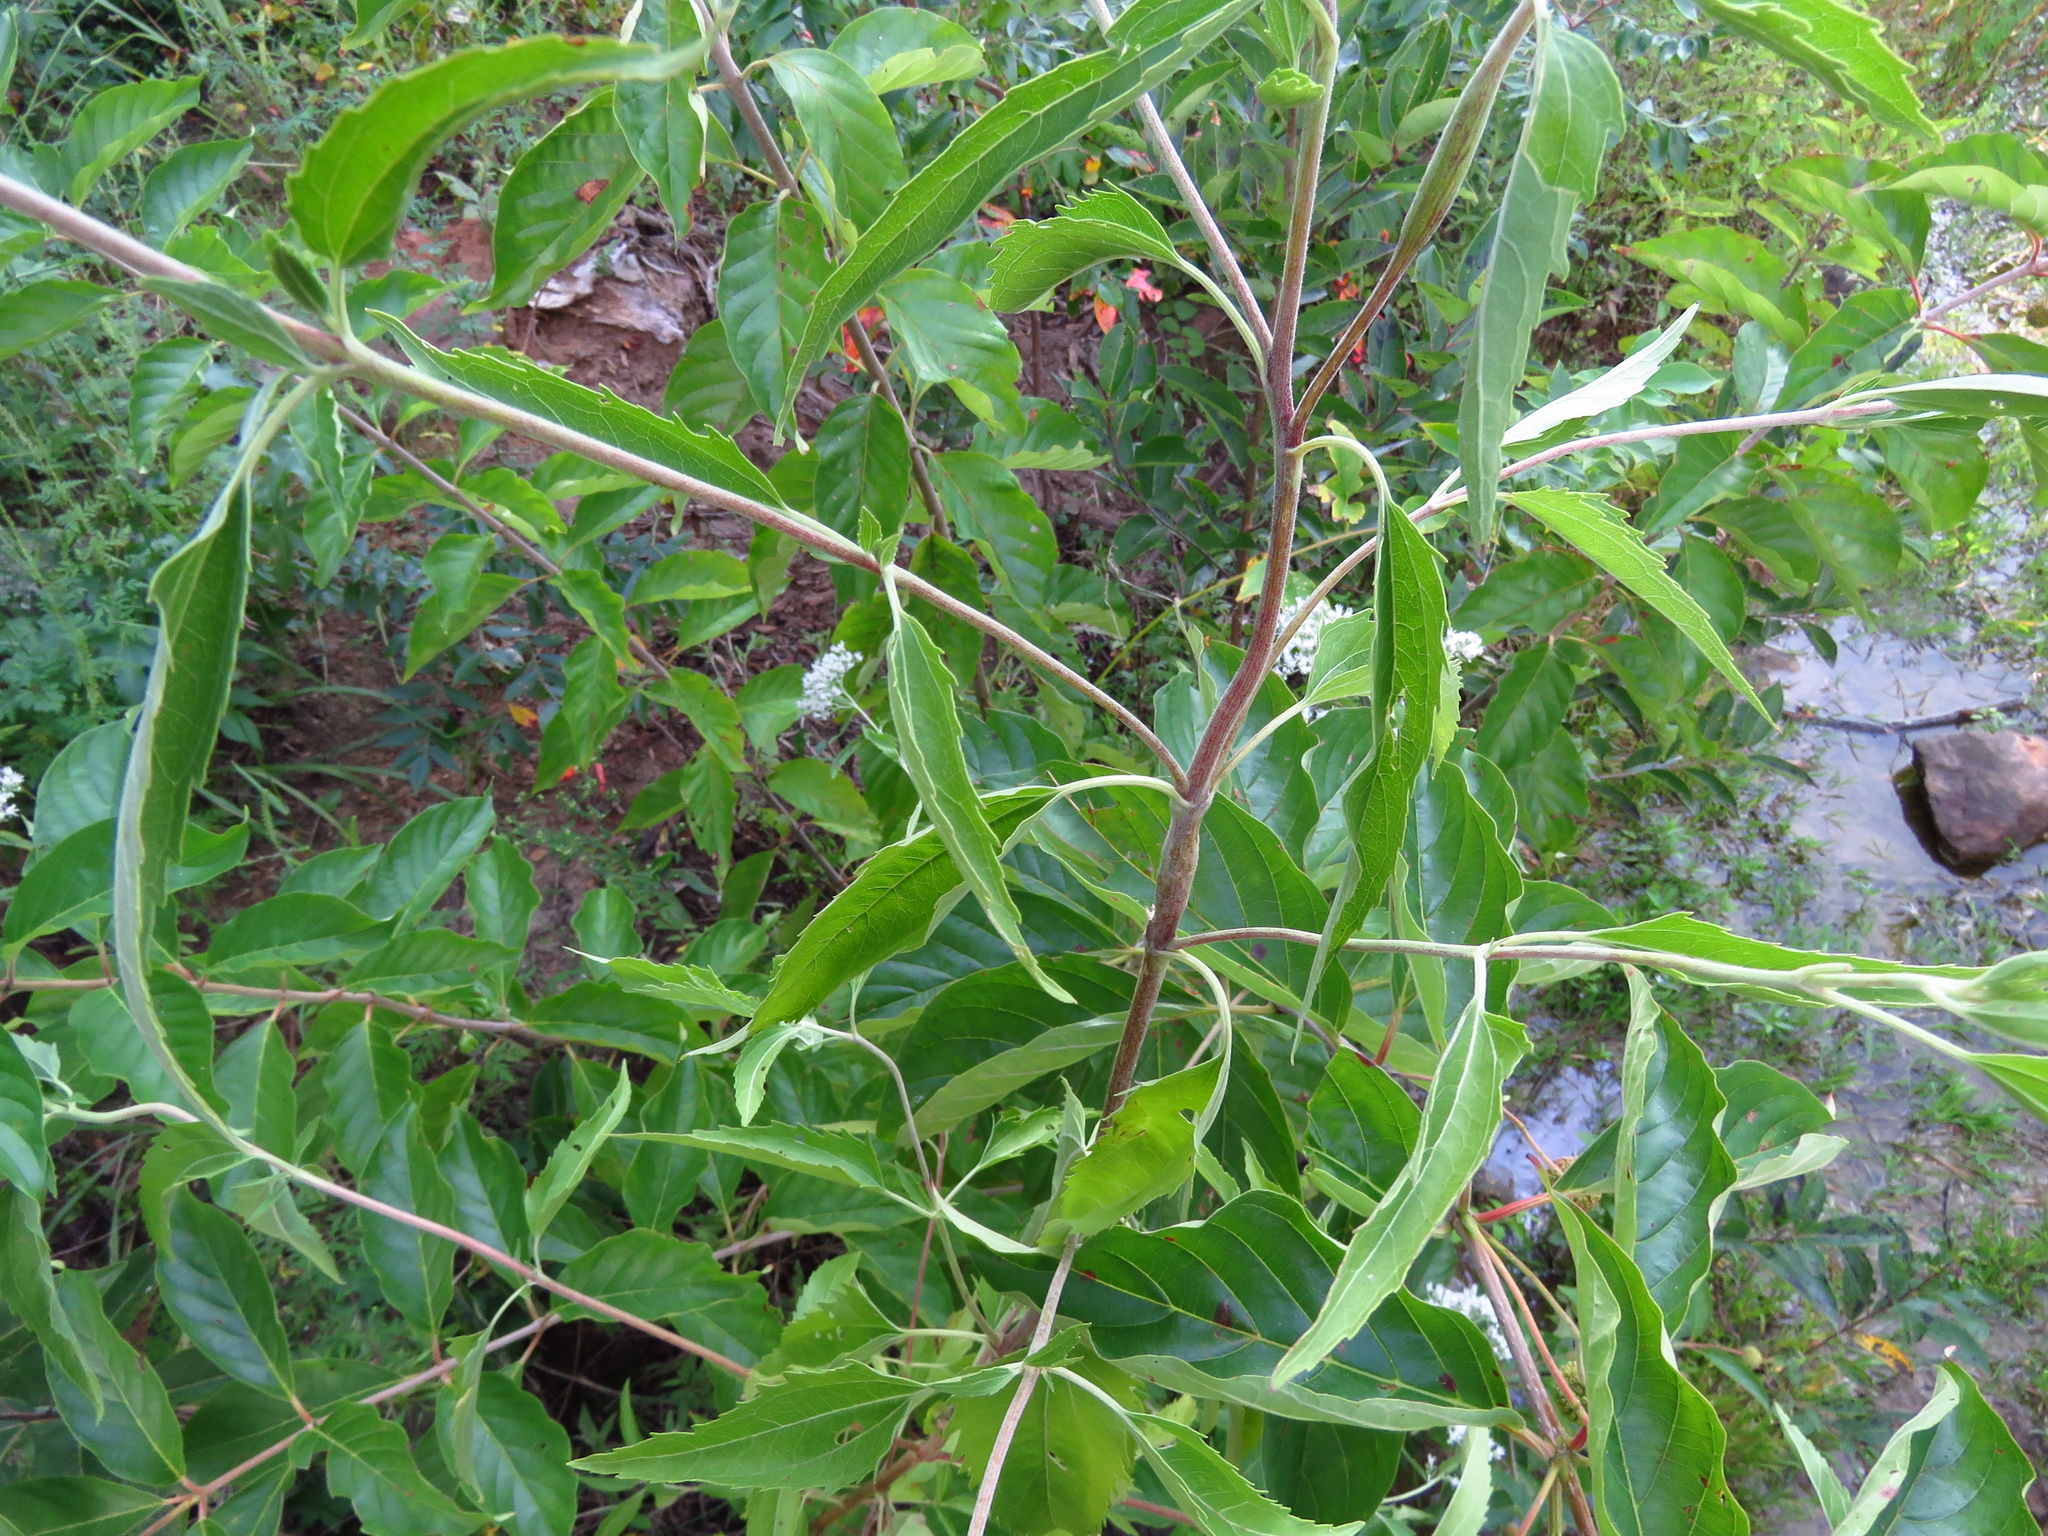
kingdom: Plantae
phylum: Tracheophyta
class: Magnoliopsida
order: Asterales
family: Asteraceae
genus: Eupatorium
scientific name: Eupatorium serotinum
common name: Late boneset
